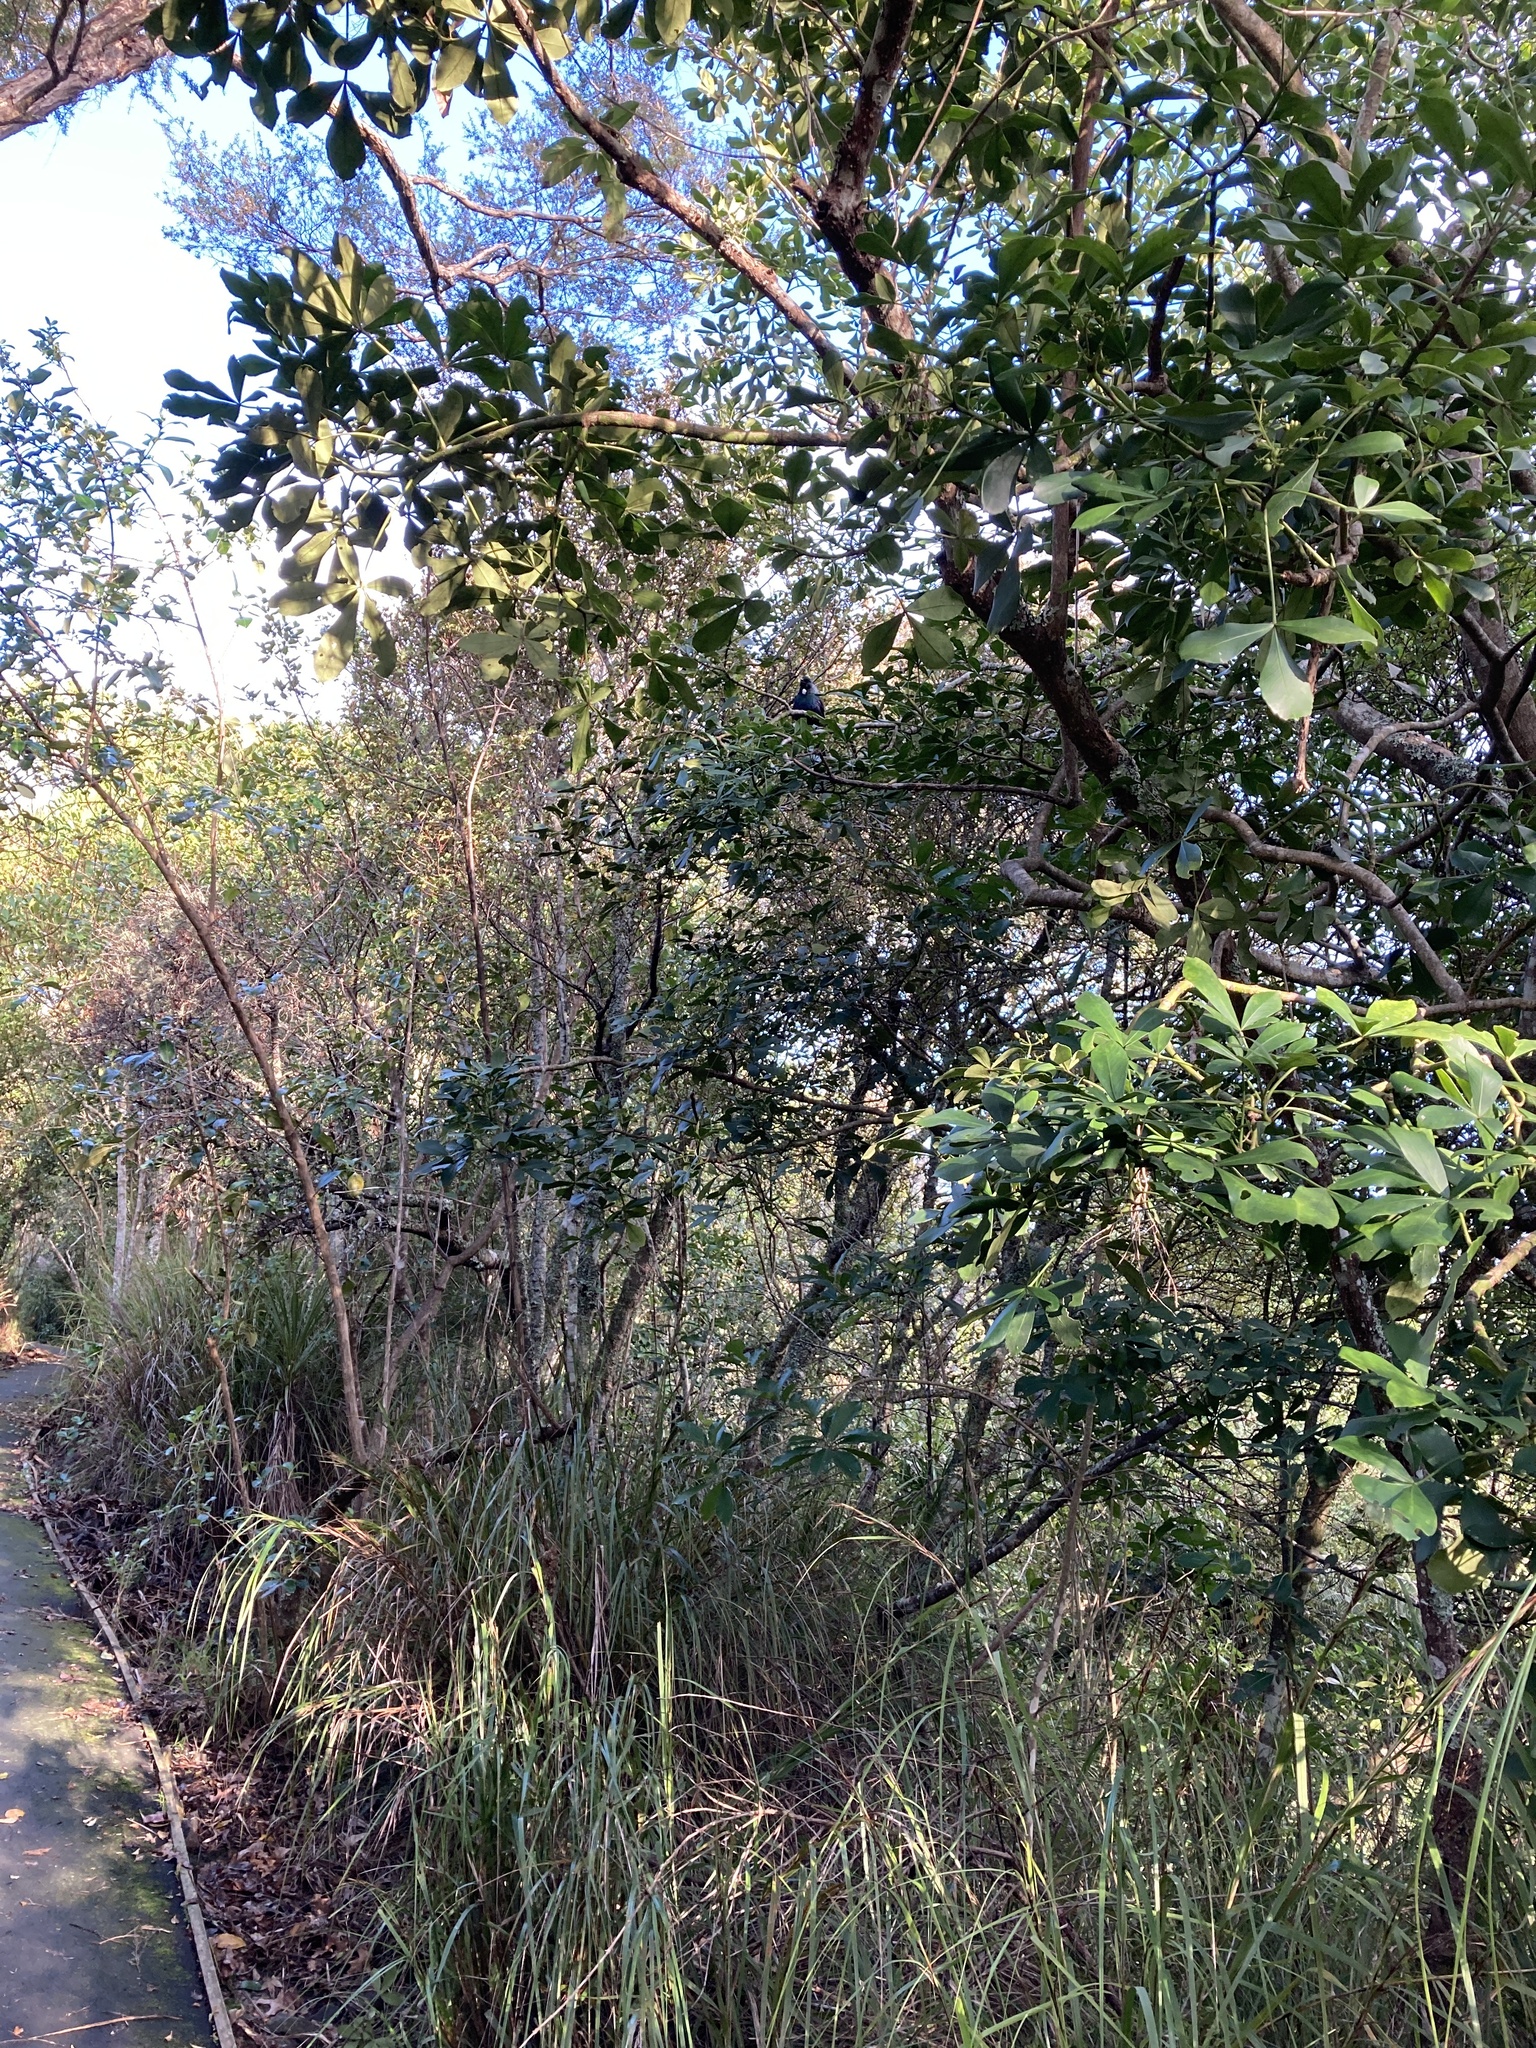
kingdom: Animalia
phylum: Chordata
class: Aves
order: Passeriformes
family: Meliphagidae
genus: Prosthemadera
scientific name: Prosthemadera novaeseelandiae
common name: Tui
